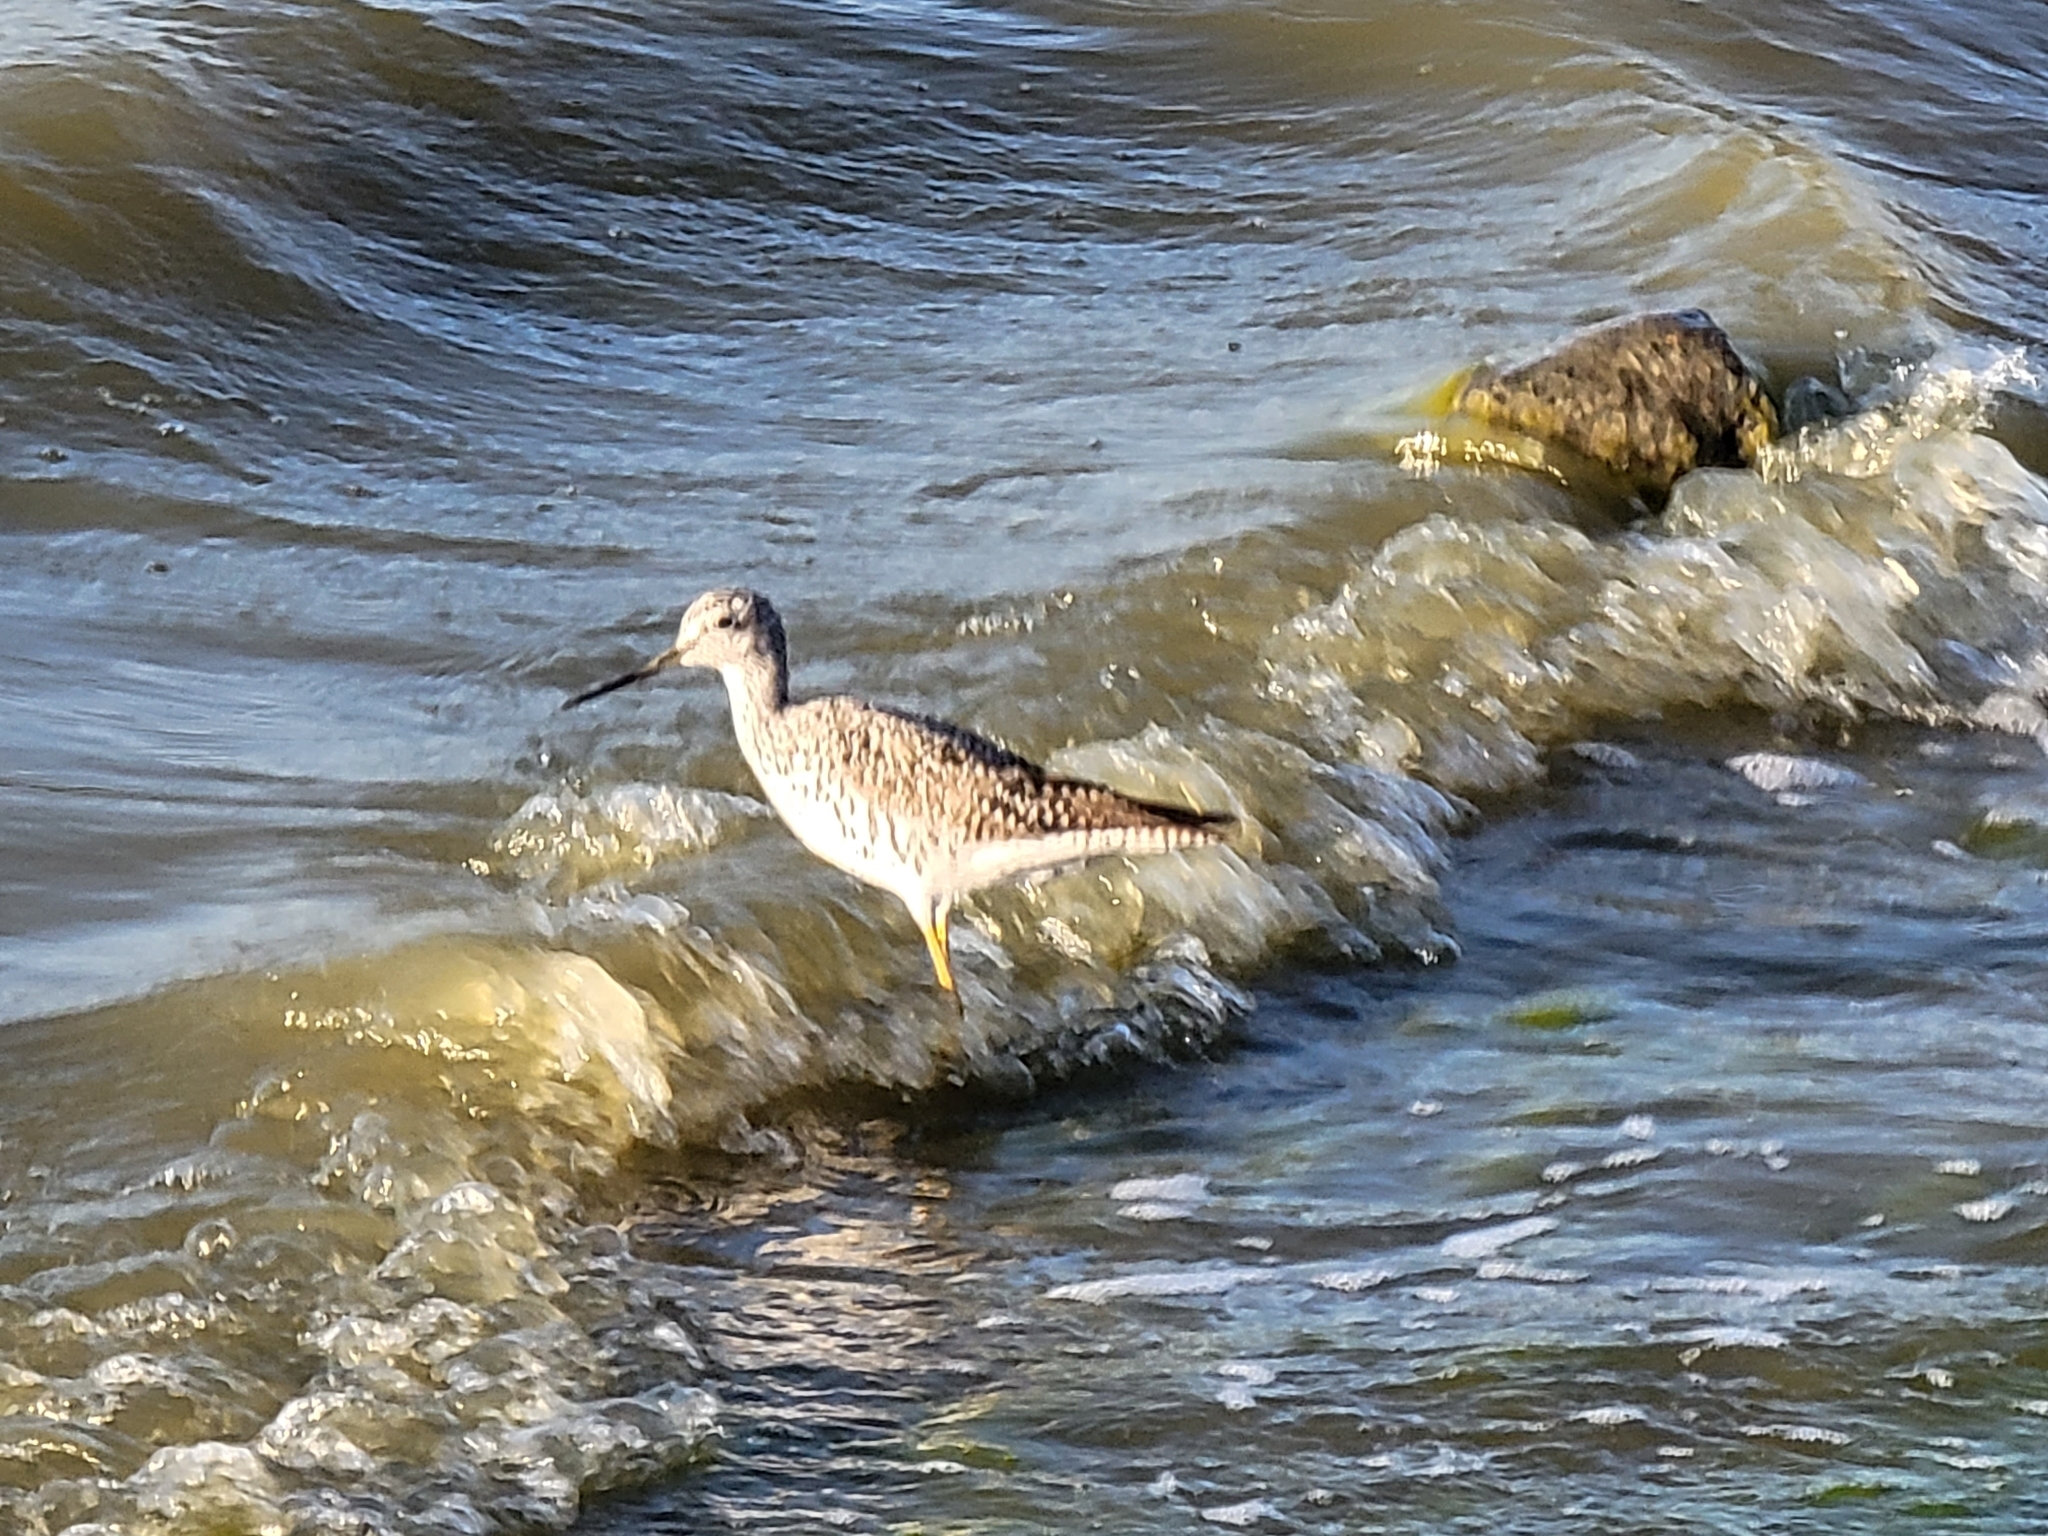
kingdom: Animalia
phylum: Chordata
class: Aves
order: Charadriiformes
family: Scolopacidae
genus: Tringa
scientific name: Tringa melanoleuca
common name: Greater yellowlegs
